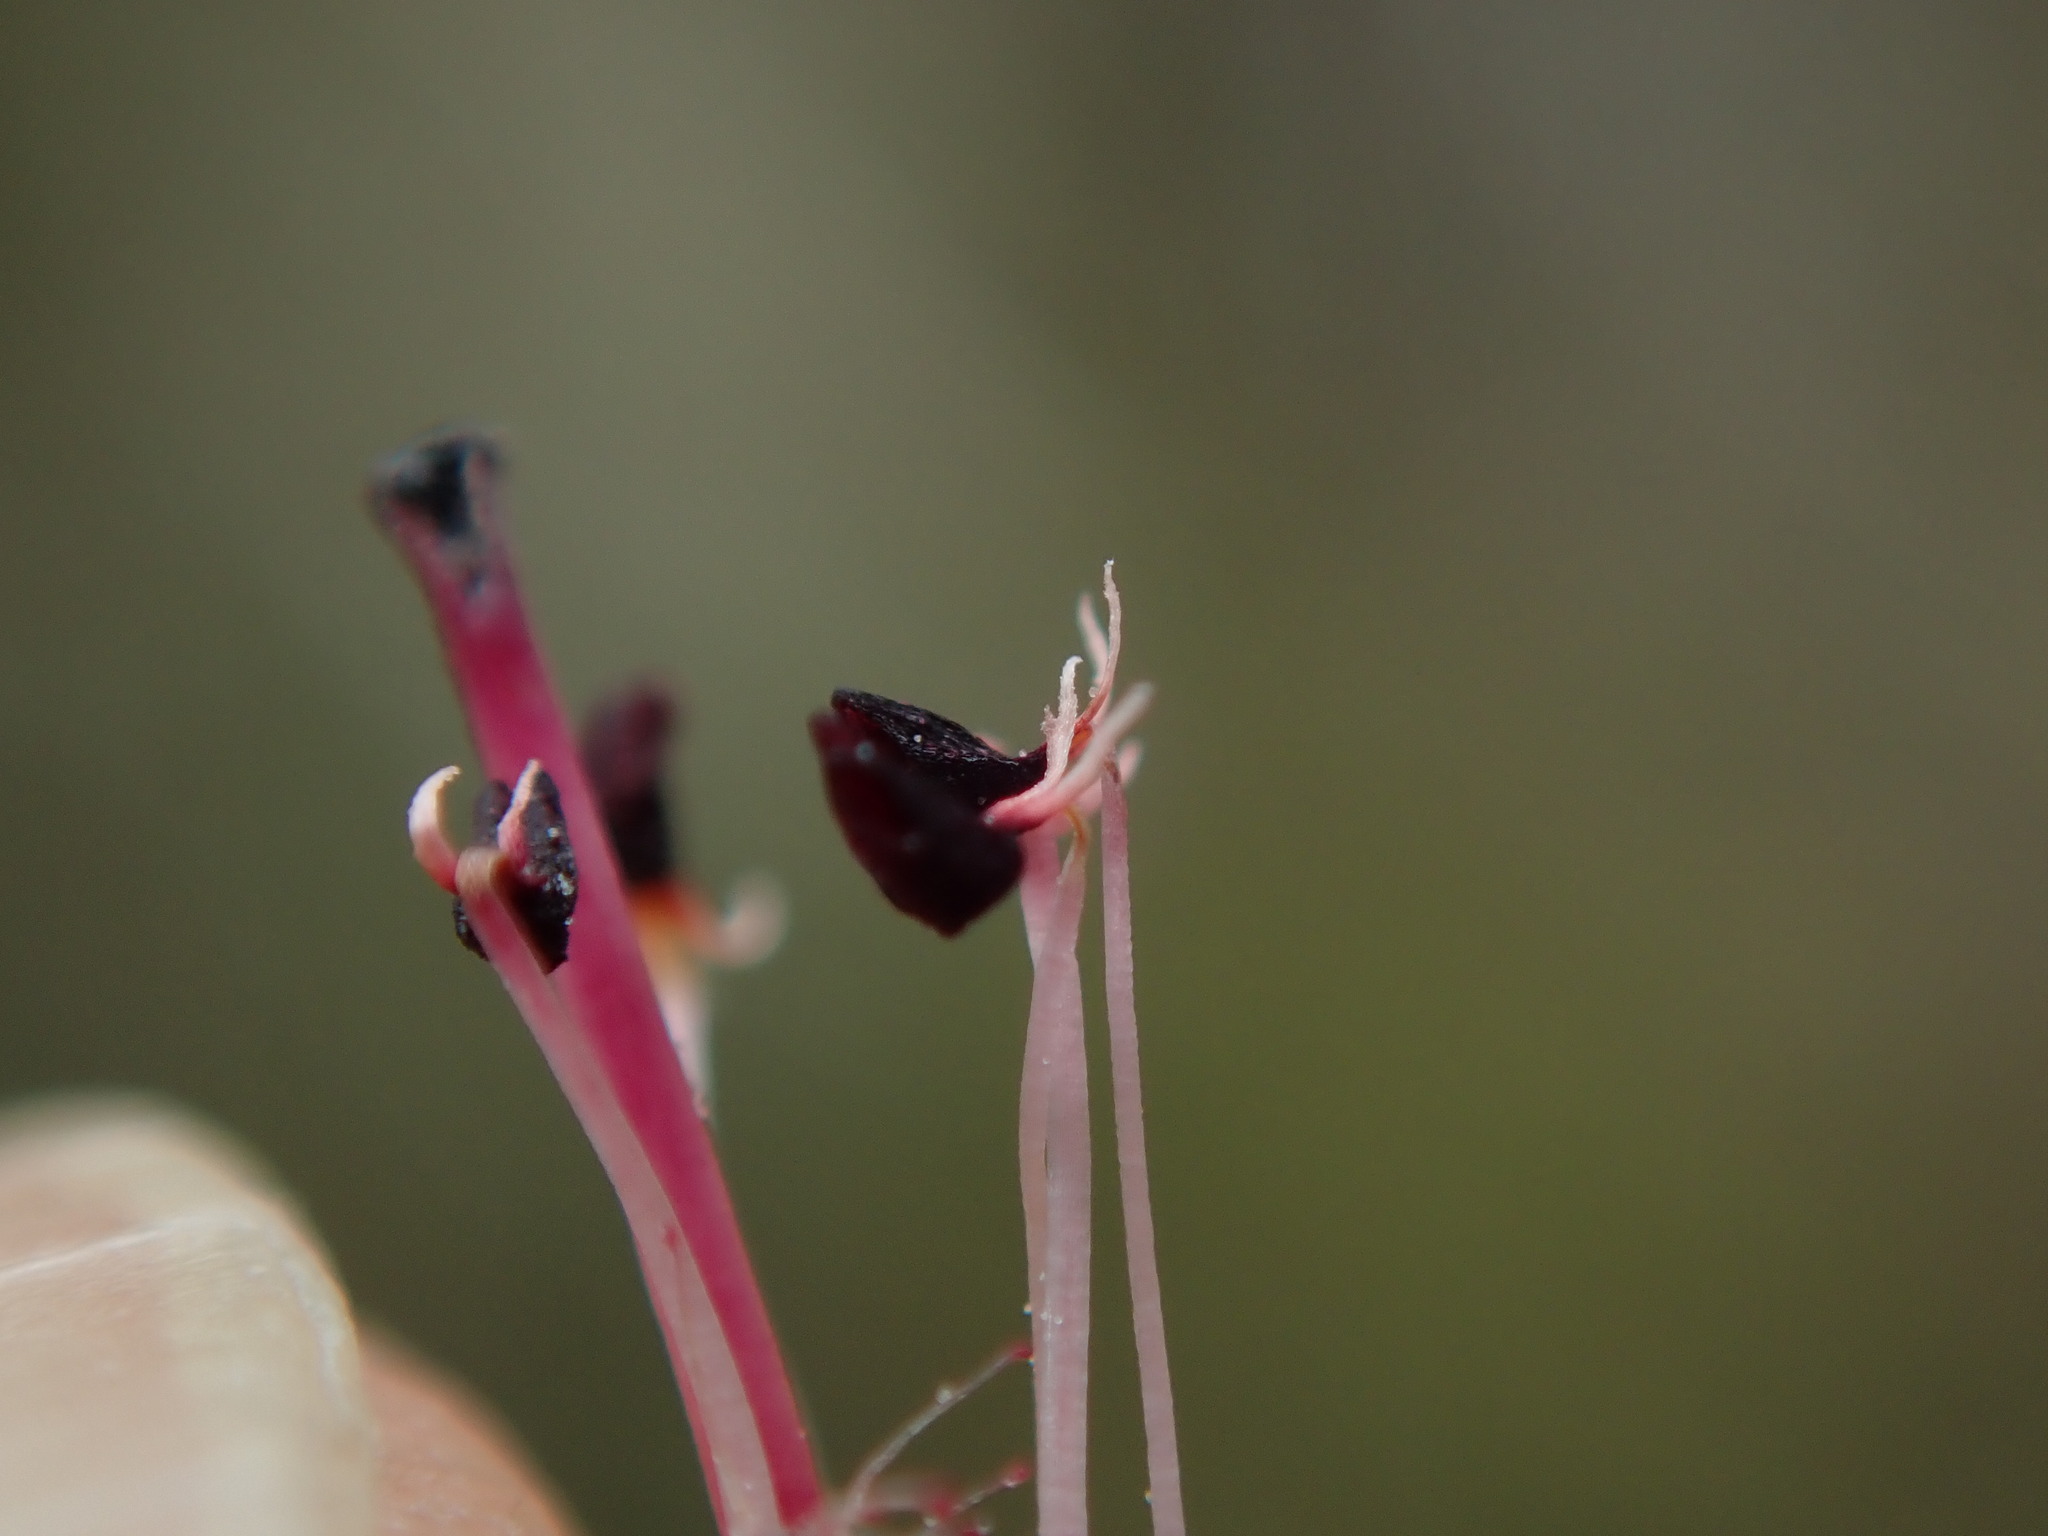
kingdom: Plantae
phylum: Tracheophyta
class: Magnoliopsida
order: Ericales
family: Ericaceae
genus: Erica
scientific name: Erica tetralix
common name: Cross-leaved heath
